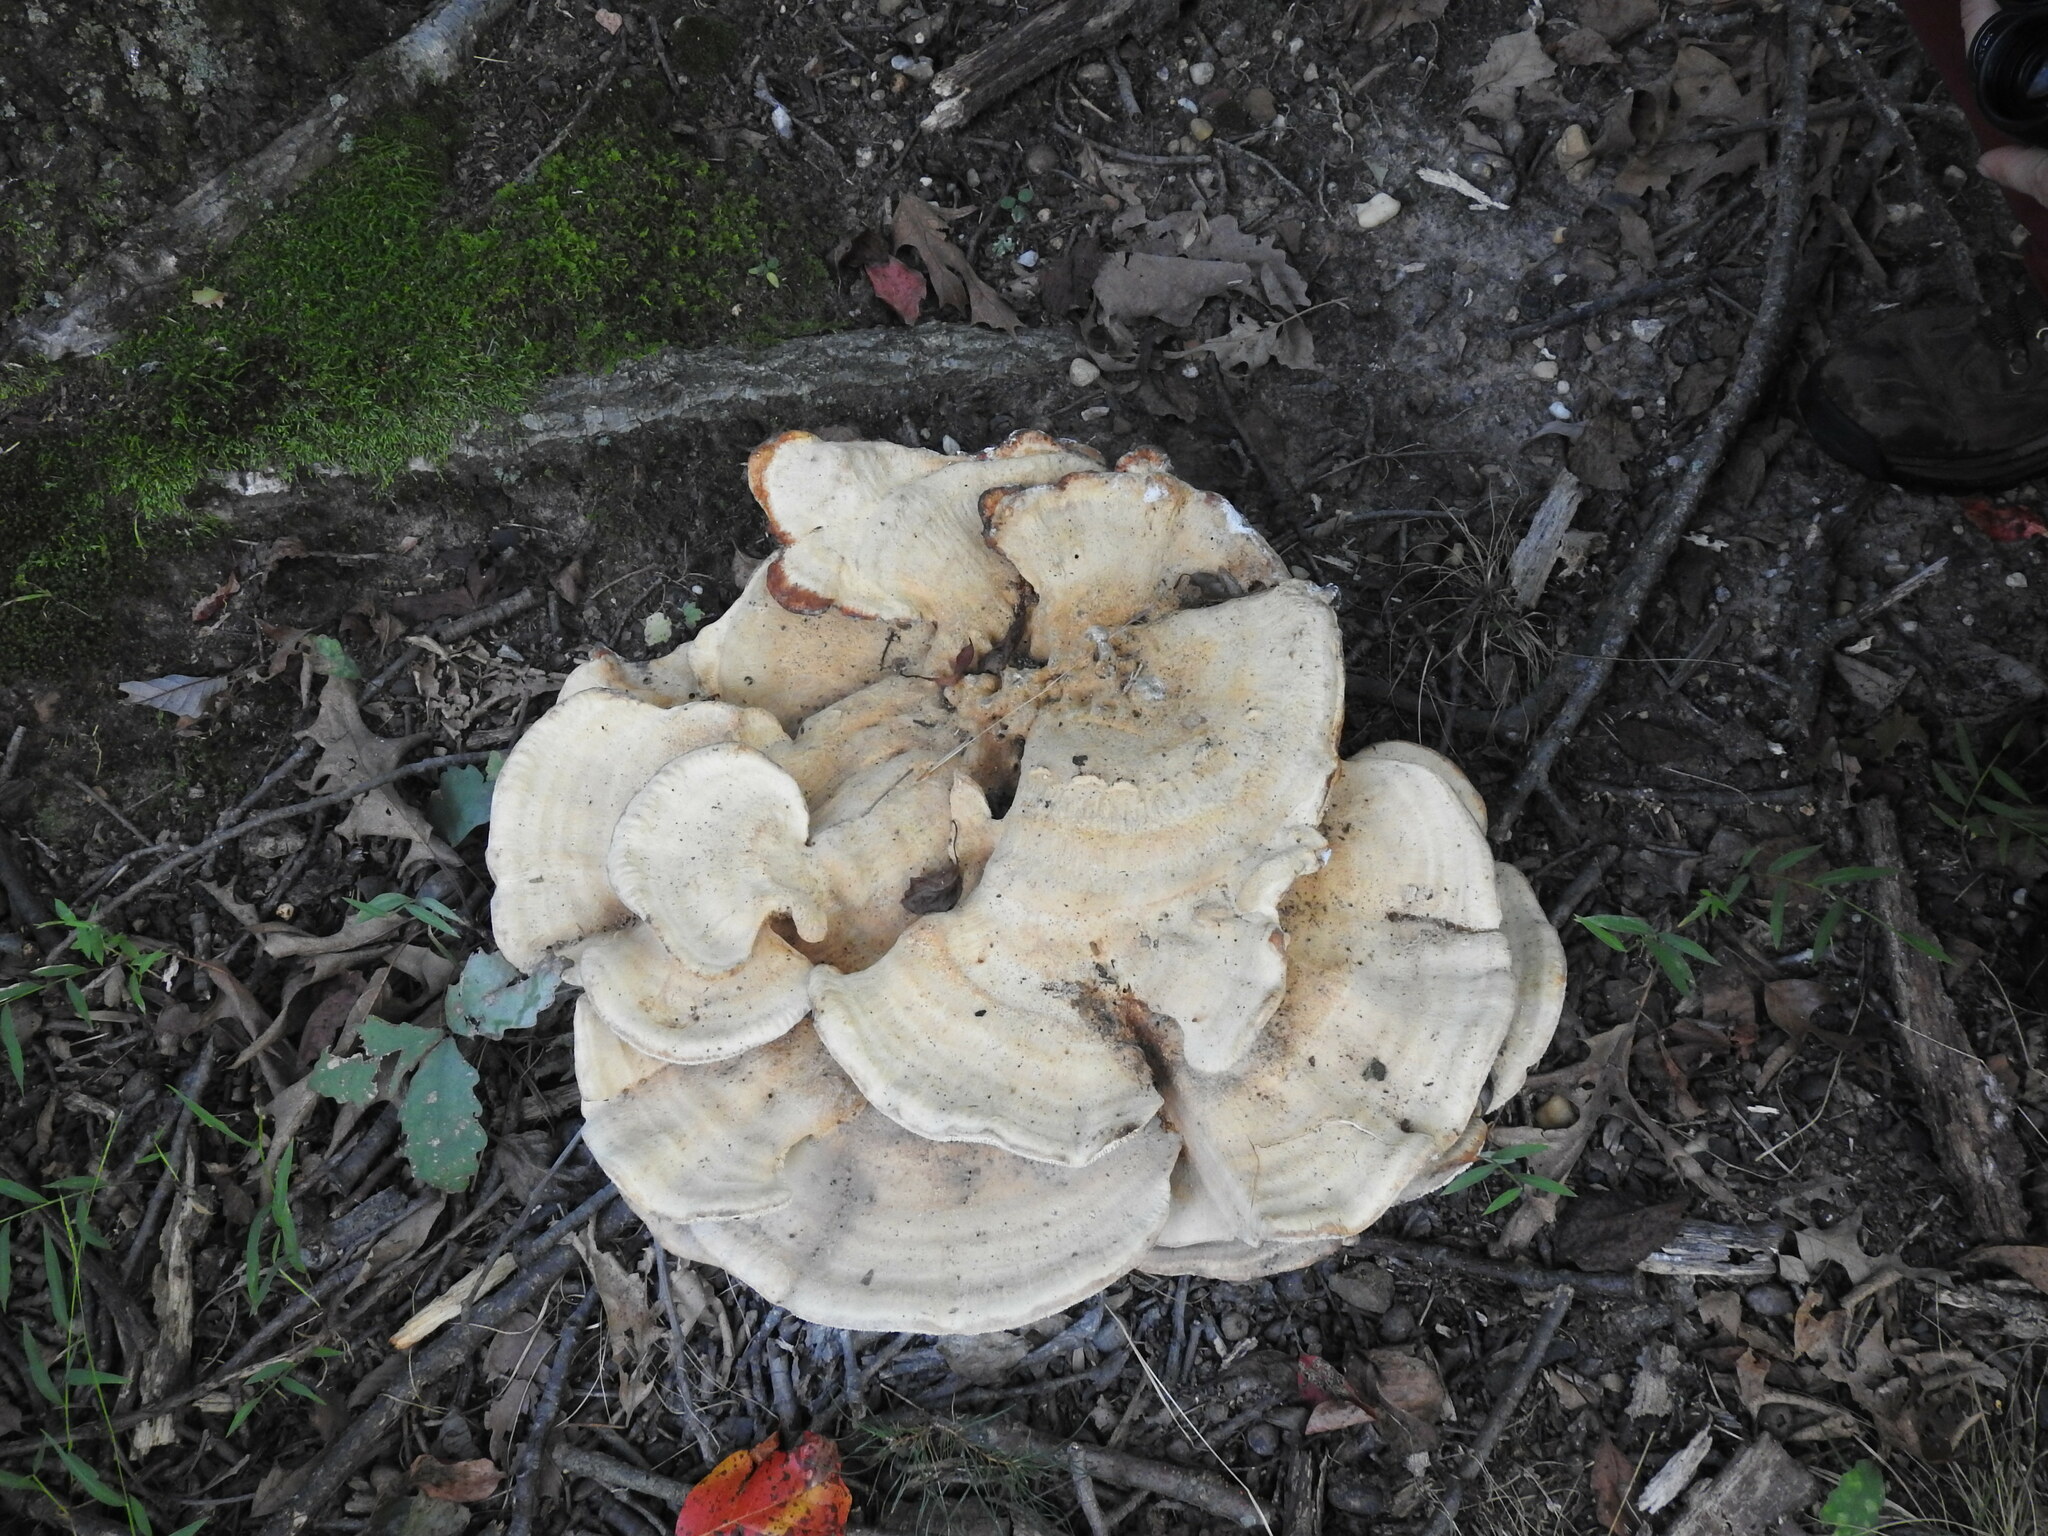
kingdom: Fungi
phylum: Basidiomycota
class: Agaricomycetes
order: Russulales
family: Bondarzewiaceae
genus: Bondarzewia
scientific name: Bondarzewia berkeleyi
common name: Berkeley's polypore
